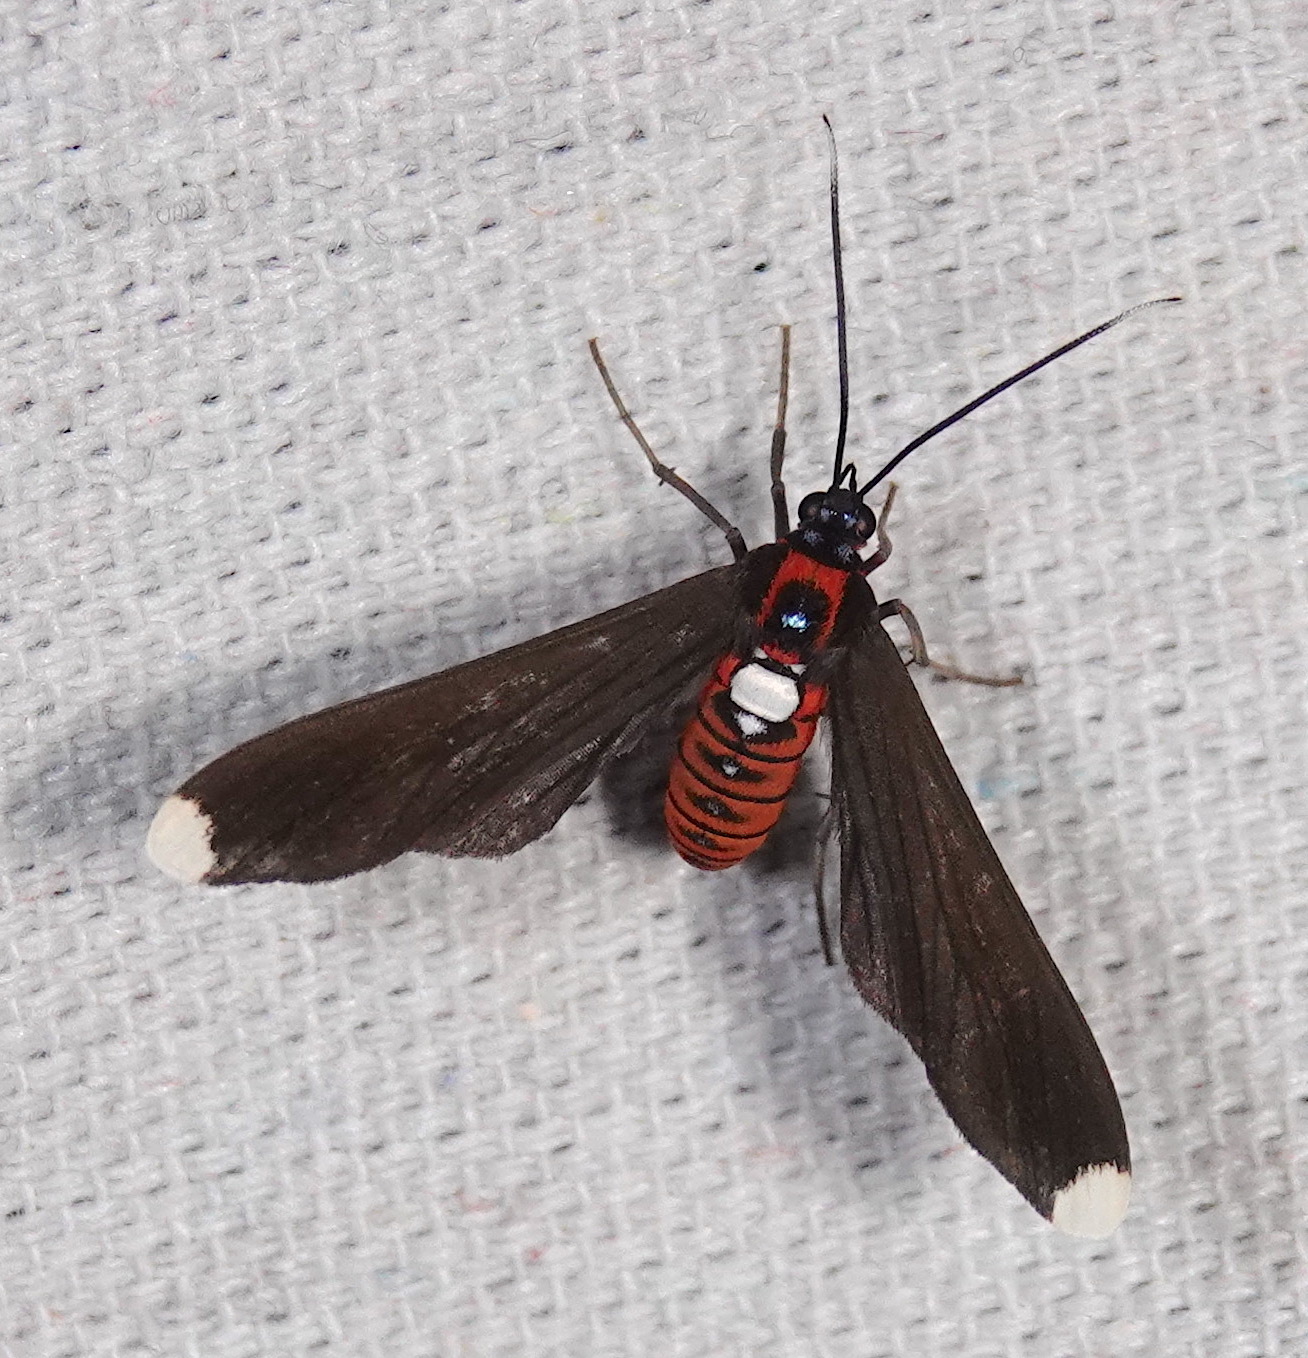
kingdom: Animalia
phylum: Arthropoda
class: Insecta
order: Lepidoptera
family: Erebidae
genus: Horamella
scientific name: Horamella fassli
